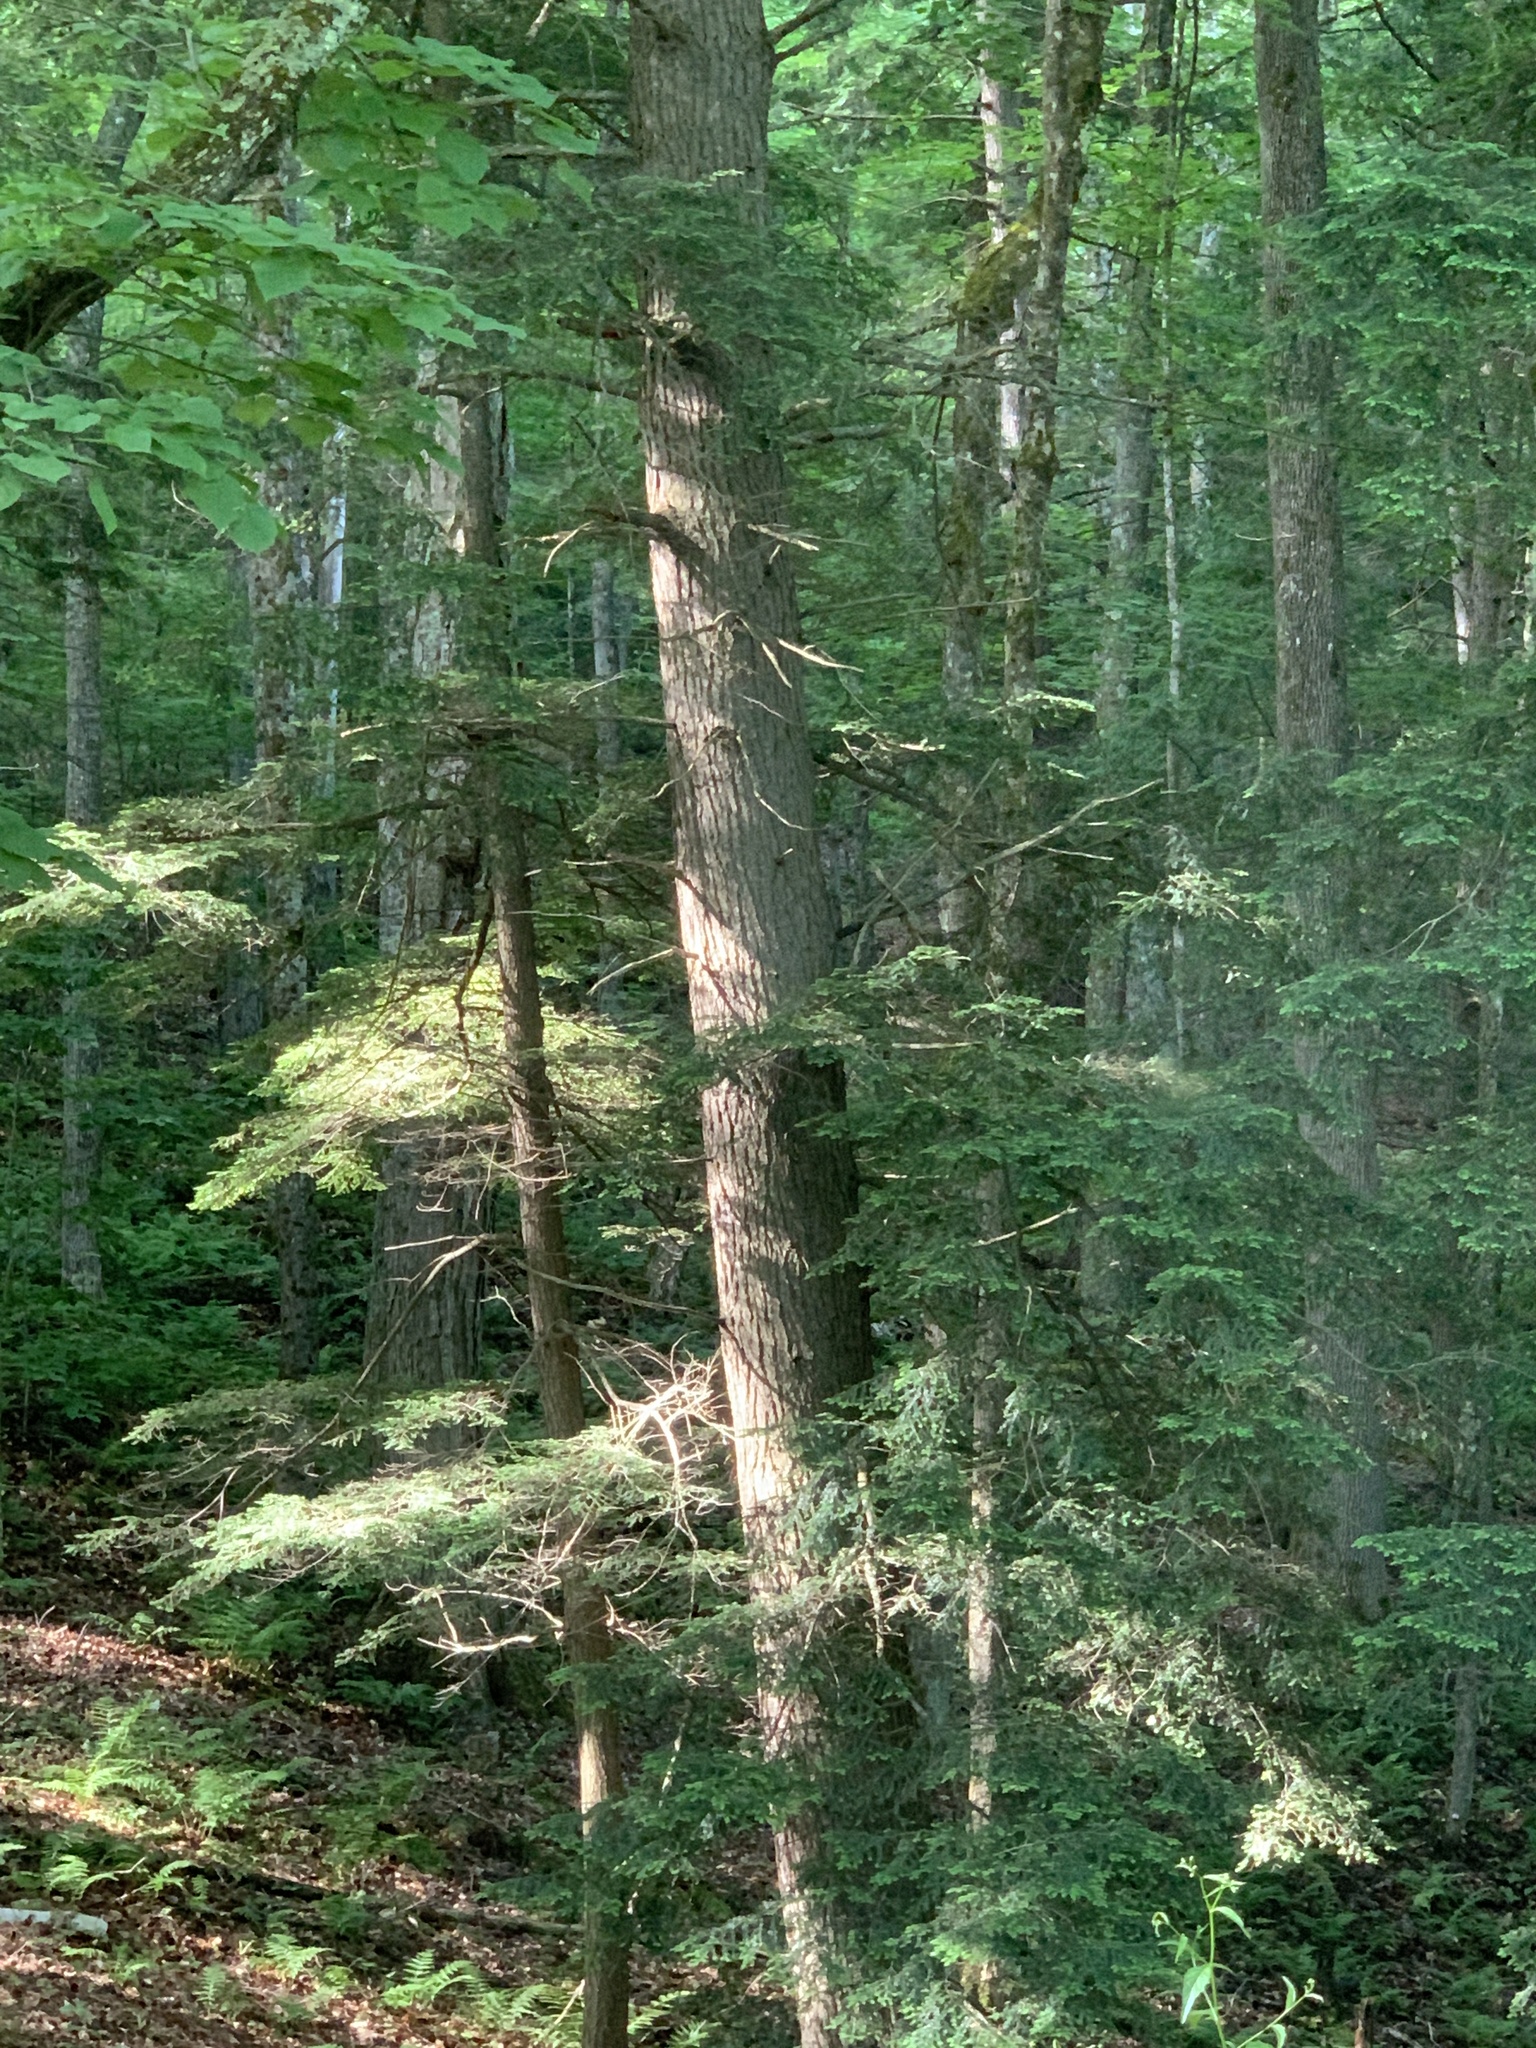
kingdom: Plantae
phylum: Tracheophyta
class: Pinopsida
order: Pinales
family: Pinaceae
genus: Tsuga
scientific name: Tsuga canadensis
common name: Eastern hemlock
